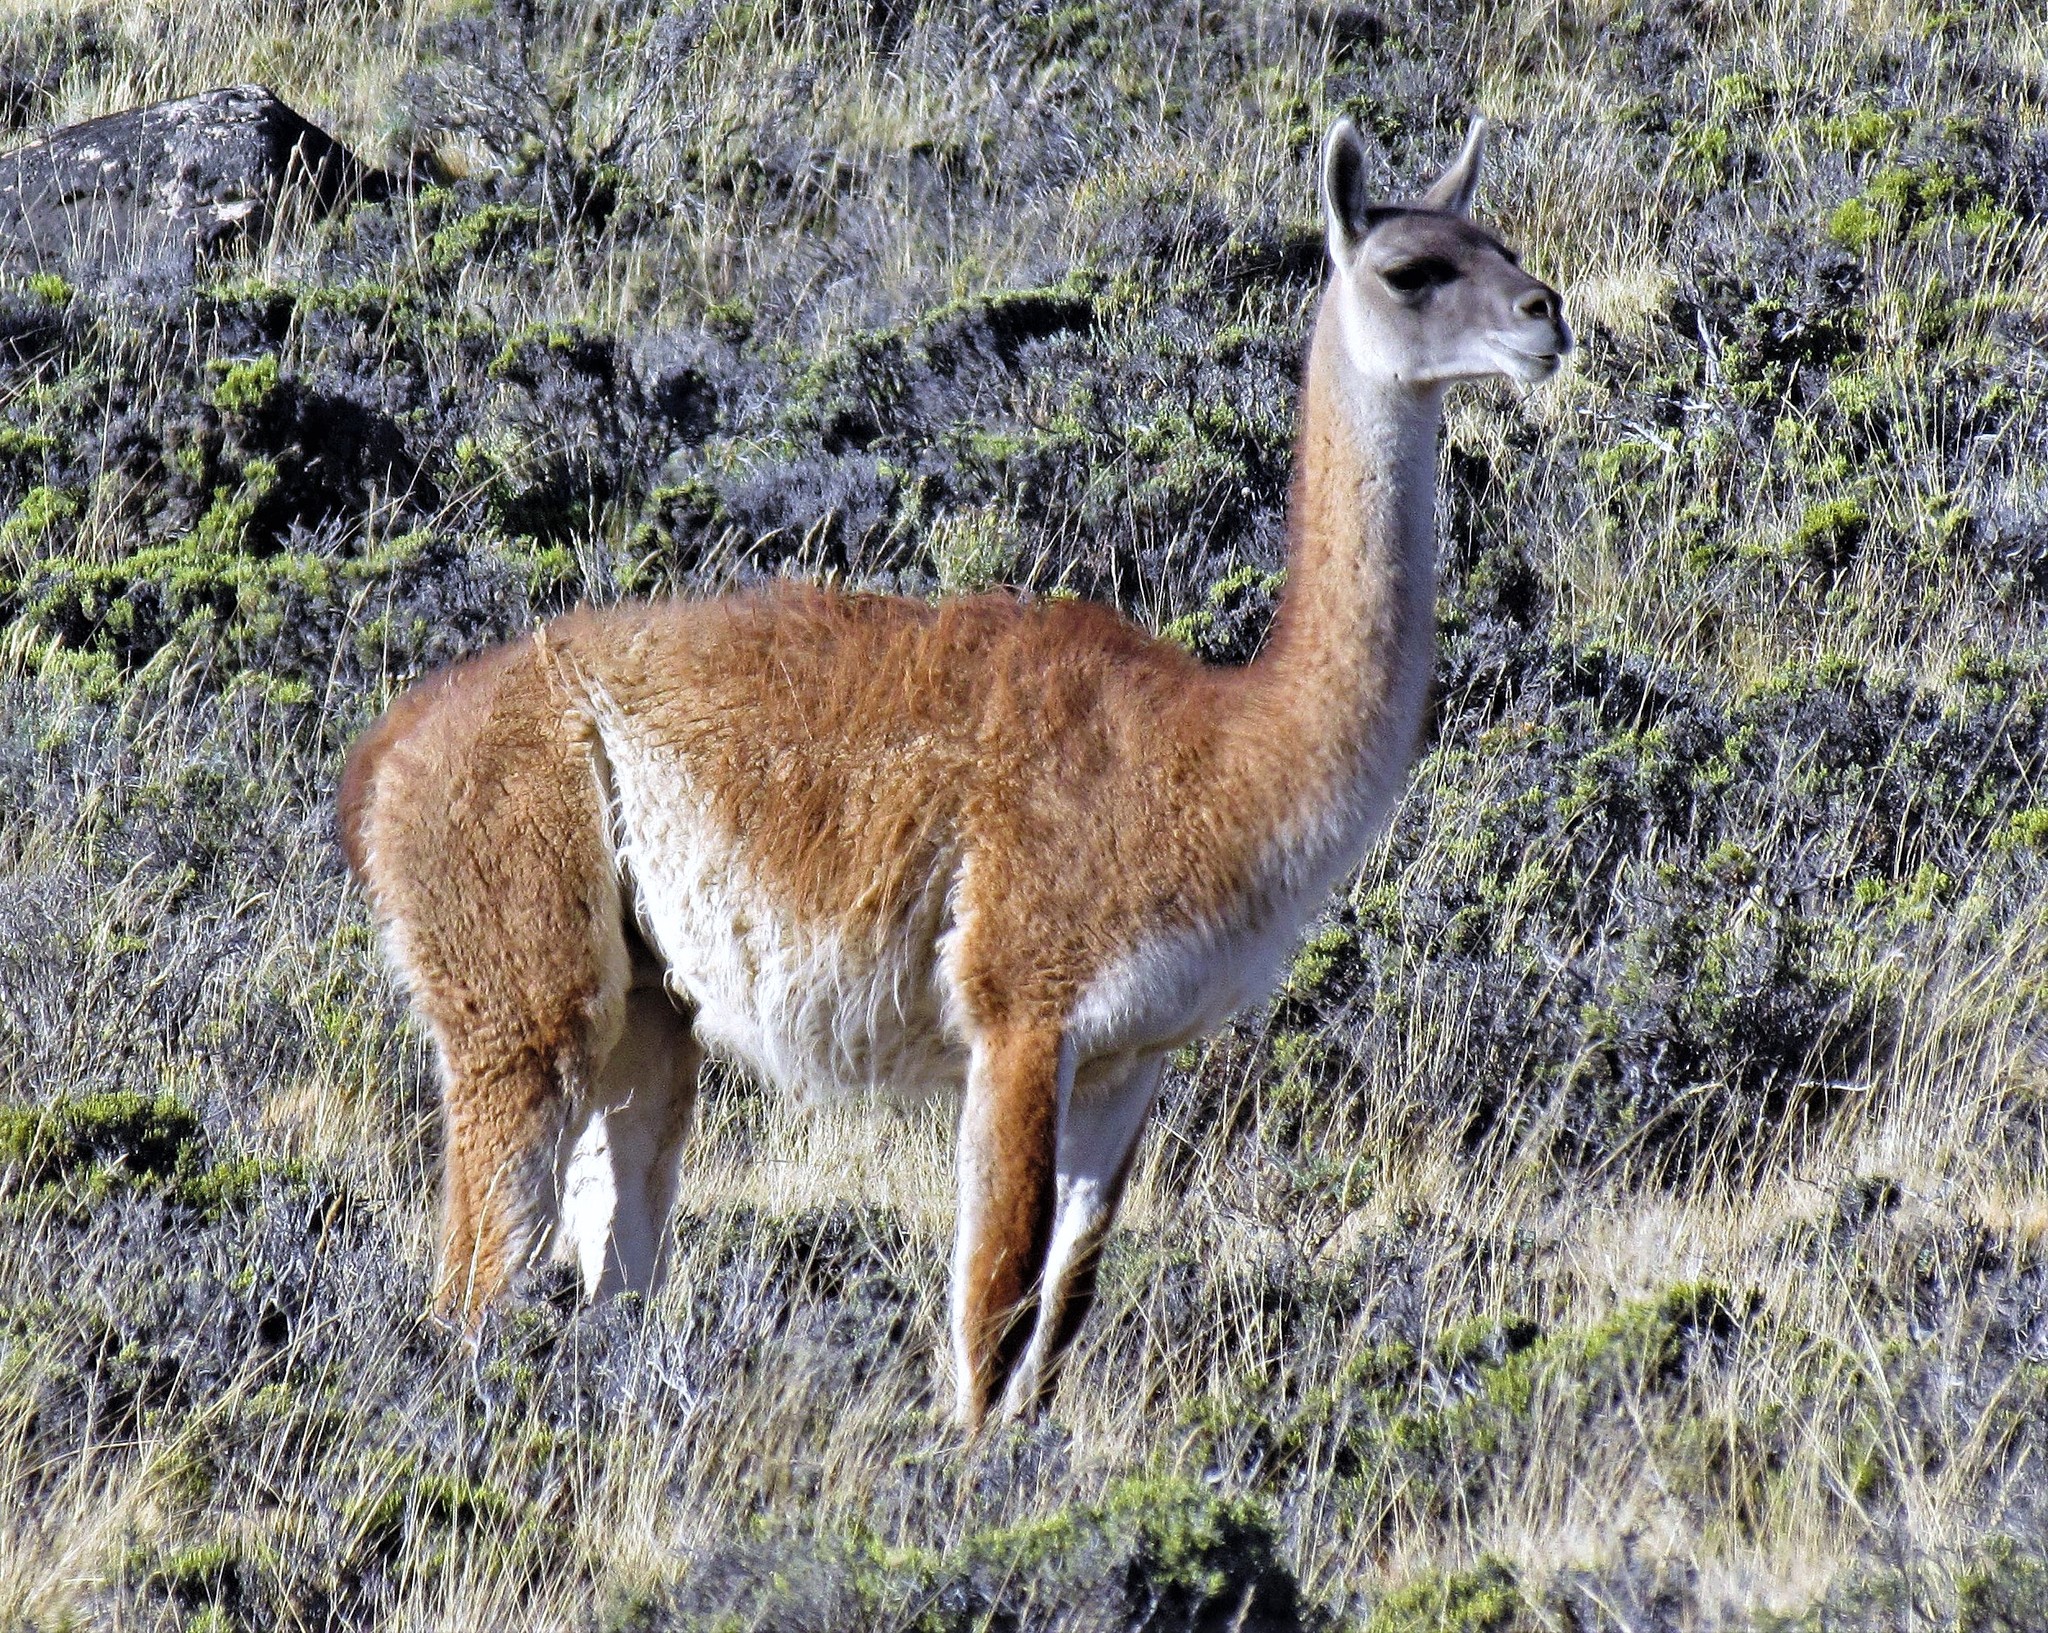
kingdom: Animalia
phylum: Chordata
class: Mammalia
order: Artiodactyla
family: Camelidae
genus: Lama
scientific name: Lama glama
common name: Llama
